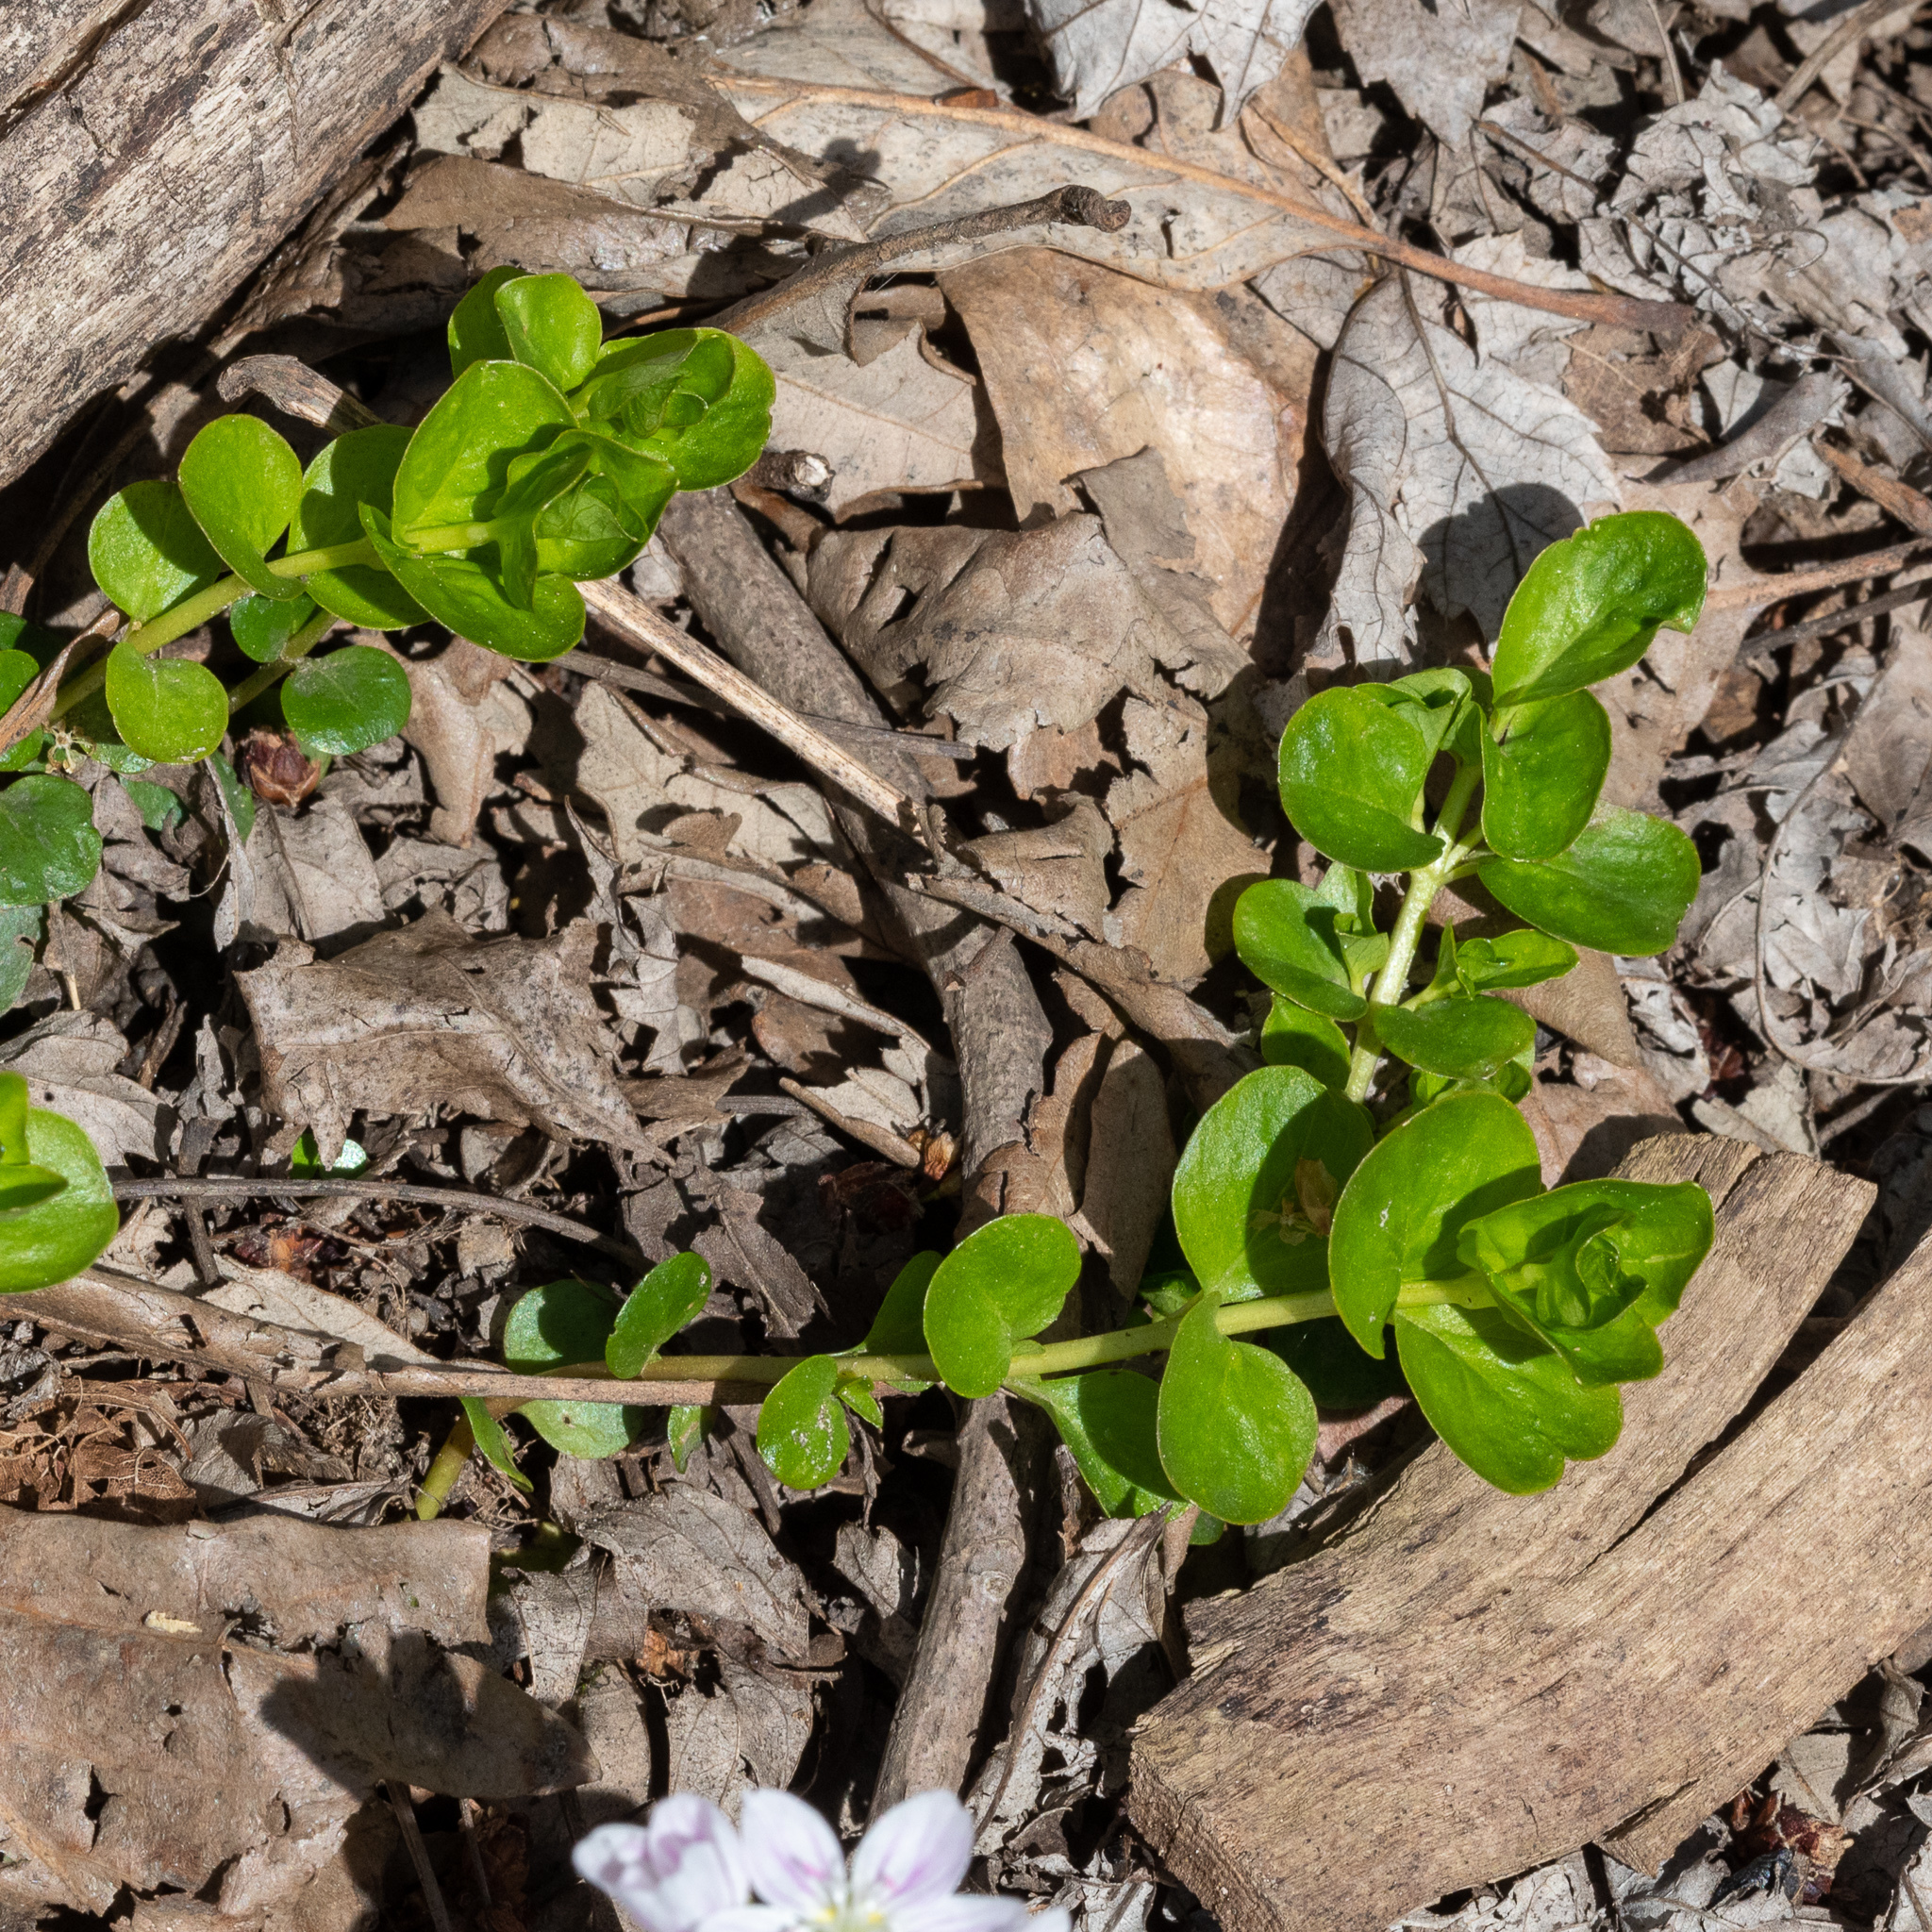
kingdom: Plantae
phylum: Tracheophyta
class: Magnoliopsida
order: Ericales
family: Primulaceae
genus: Lysimachia
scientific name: Lysimachia nummularia
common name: Moneywort
